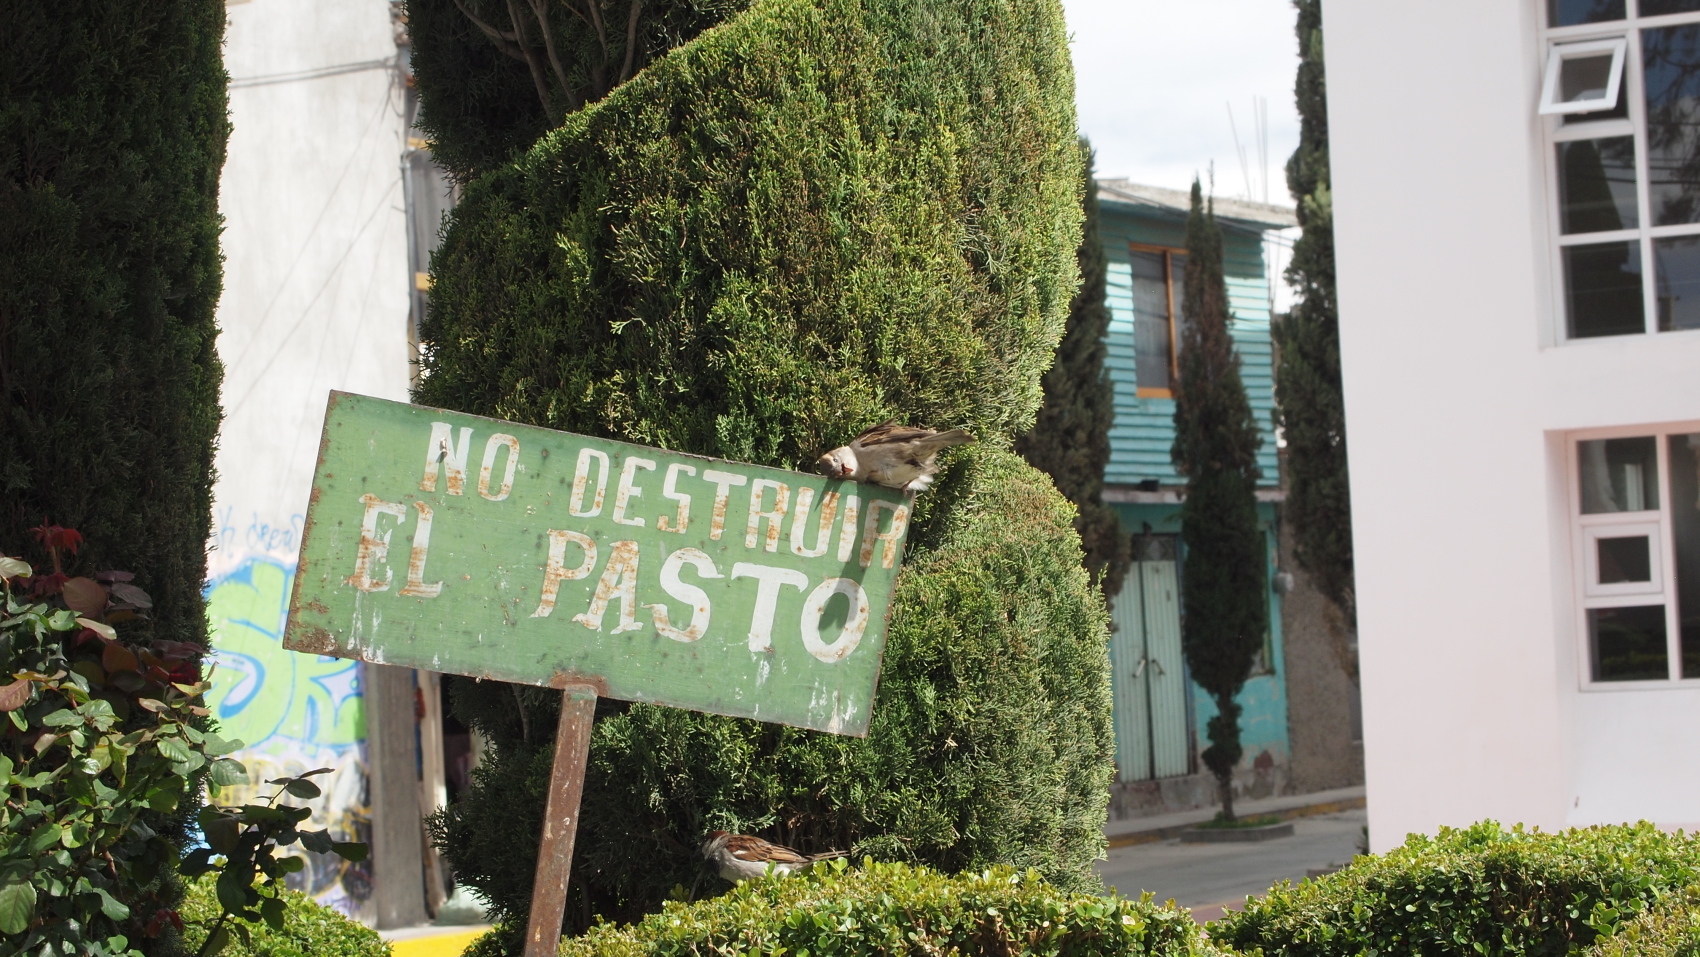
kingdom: Animalia
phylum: Chordata
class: Aves
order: Passeriformes
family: Passeridae
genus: Passer
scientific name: Passer domesticus
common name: House sparrow
